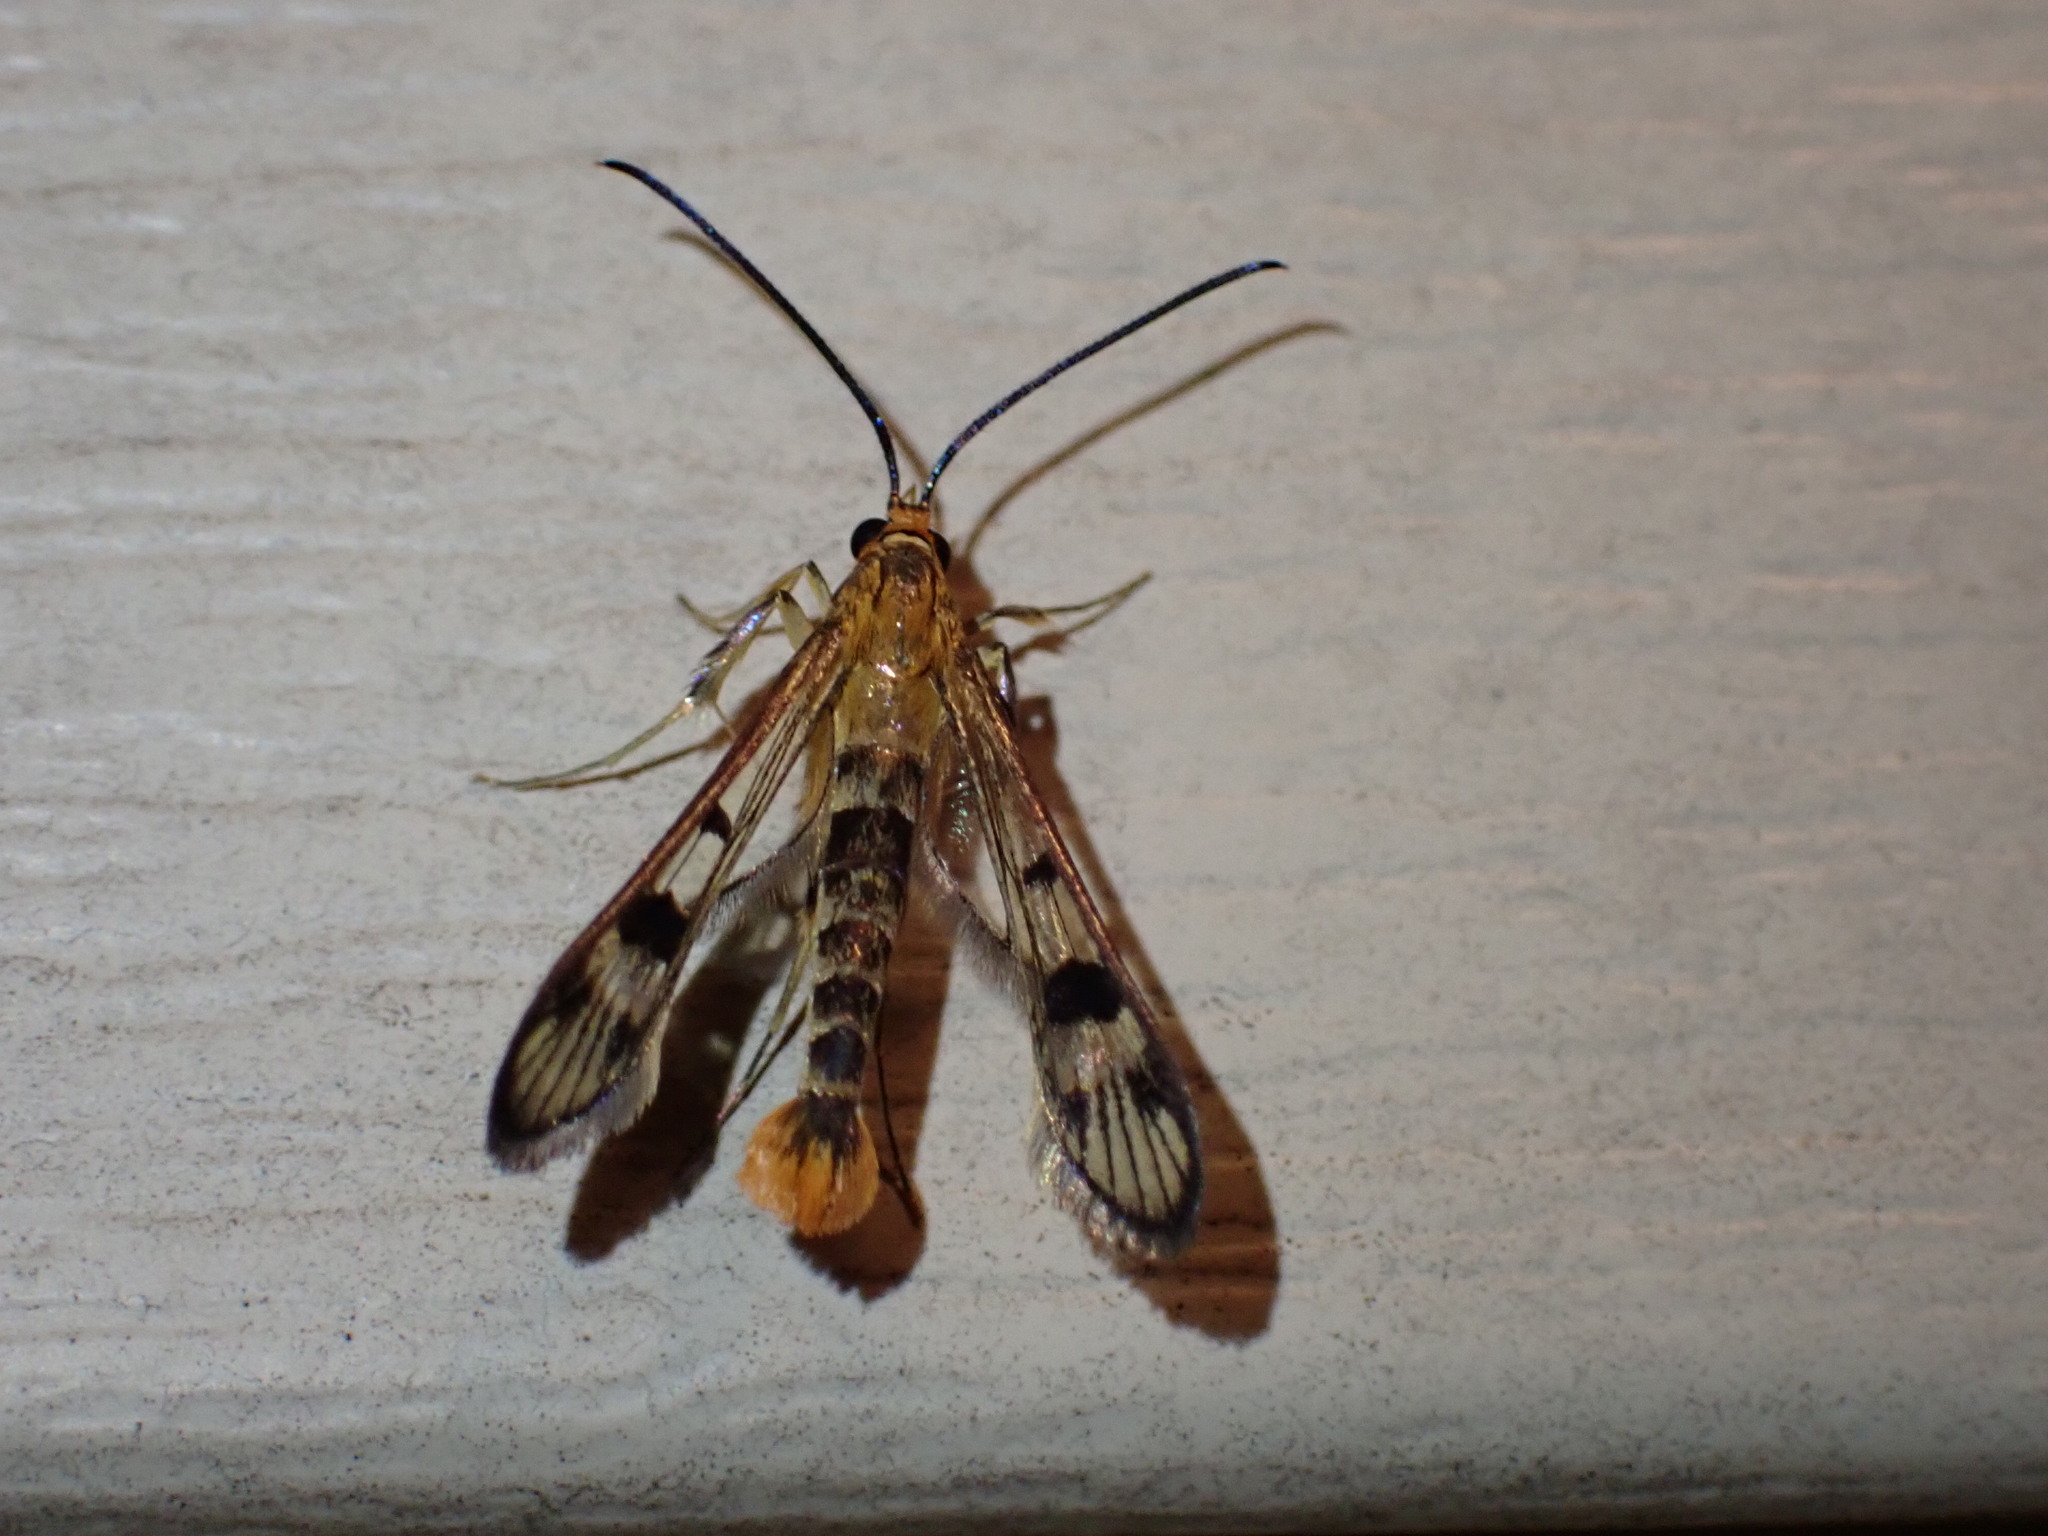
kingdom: Animalia
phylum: Arthropoda
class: Insecta
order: Lepidoptera
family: Sesiidae
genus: Synanthedon
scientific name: Synanthedon acerni
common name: Maple callus borer moth
